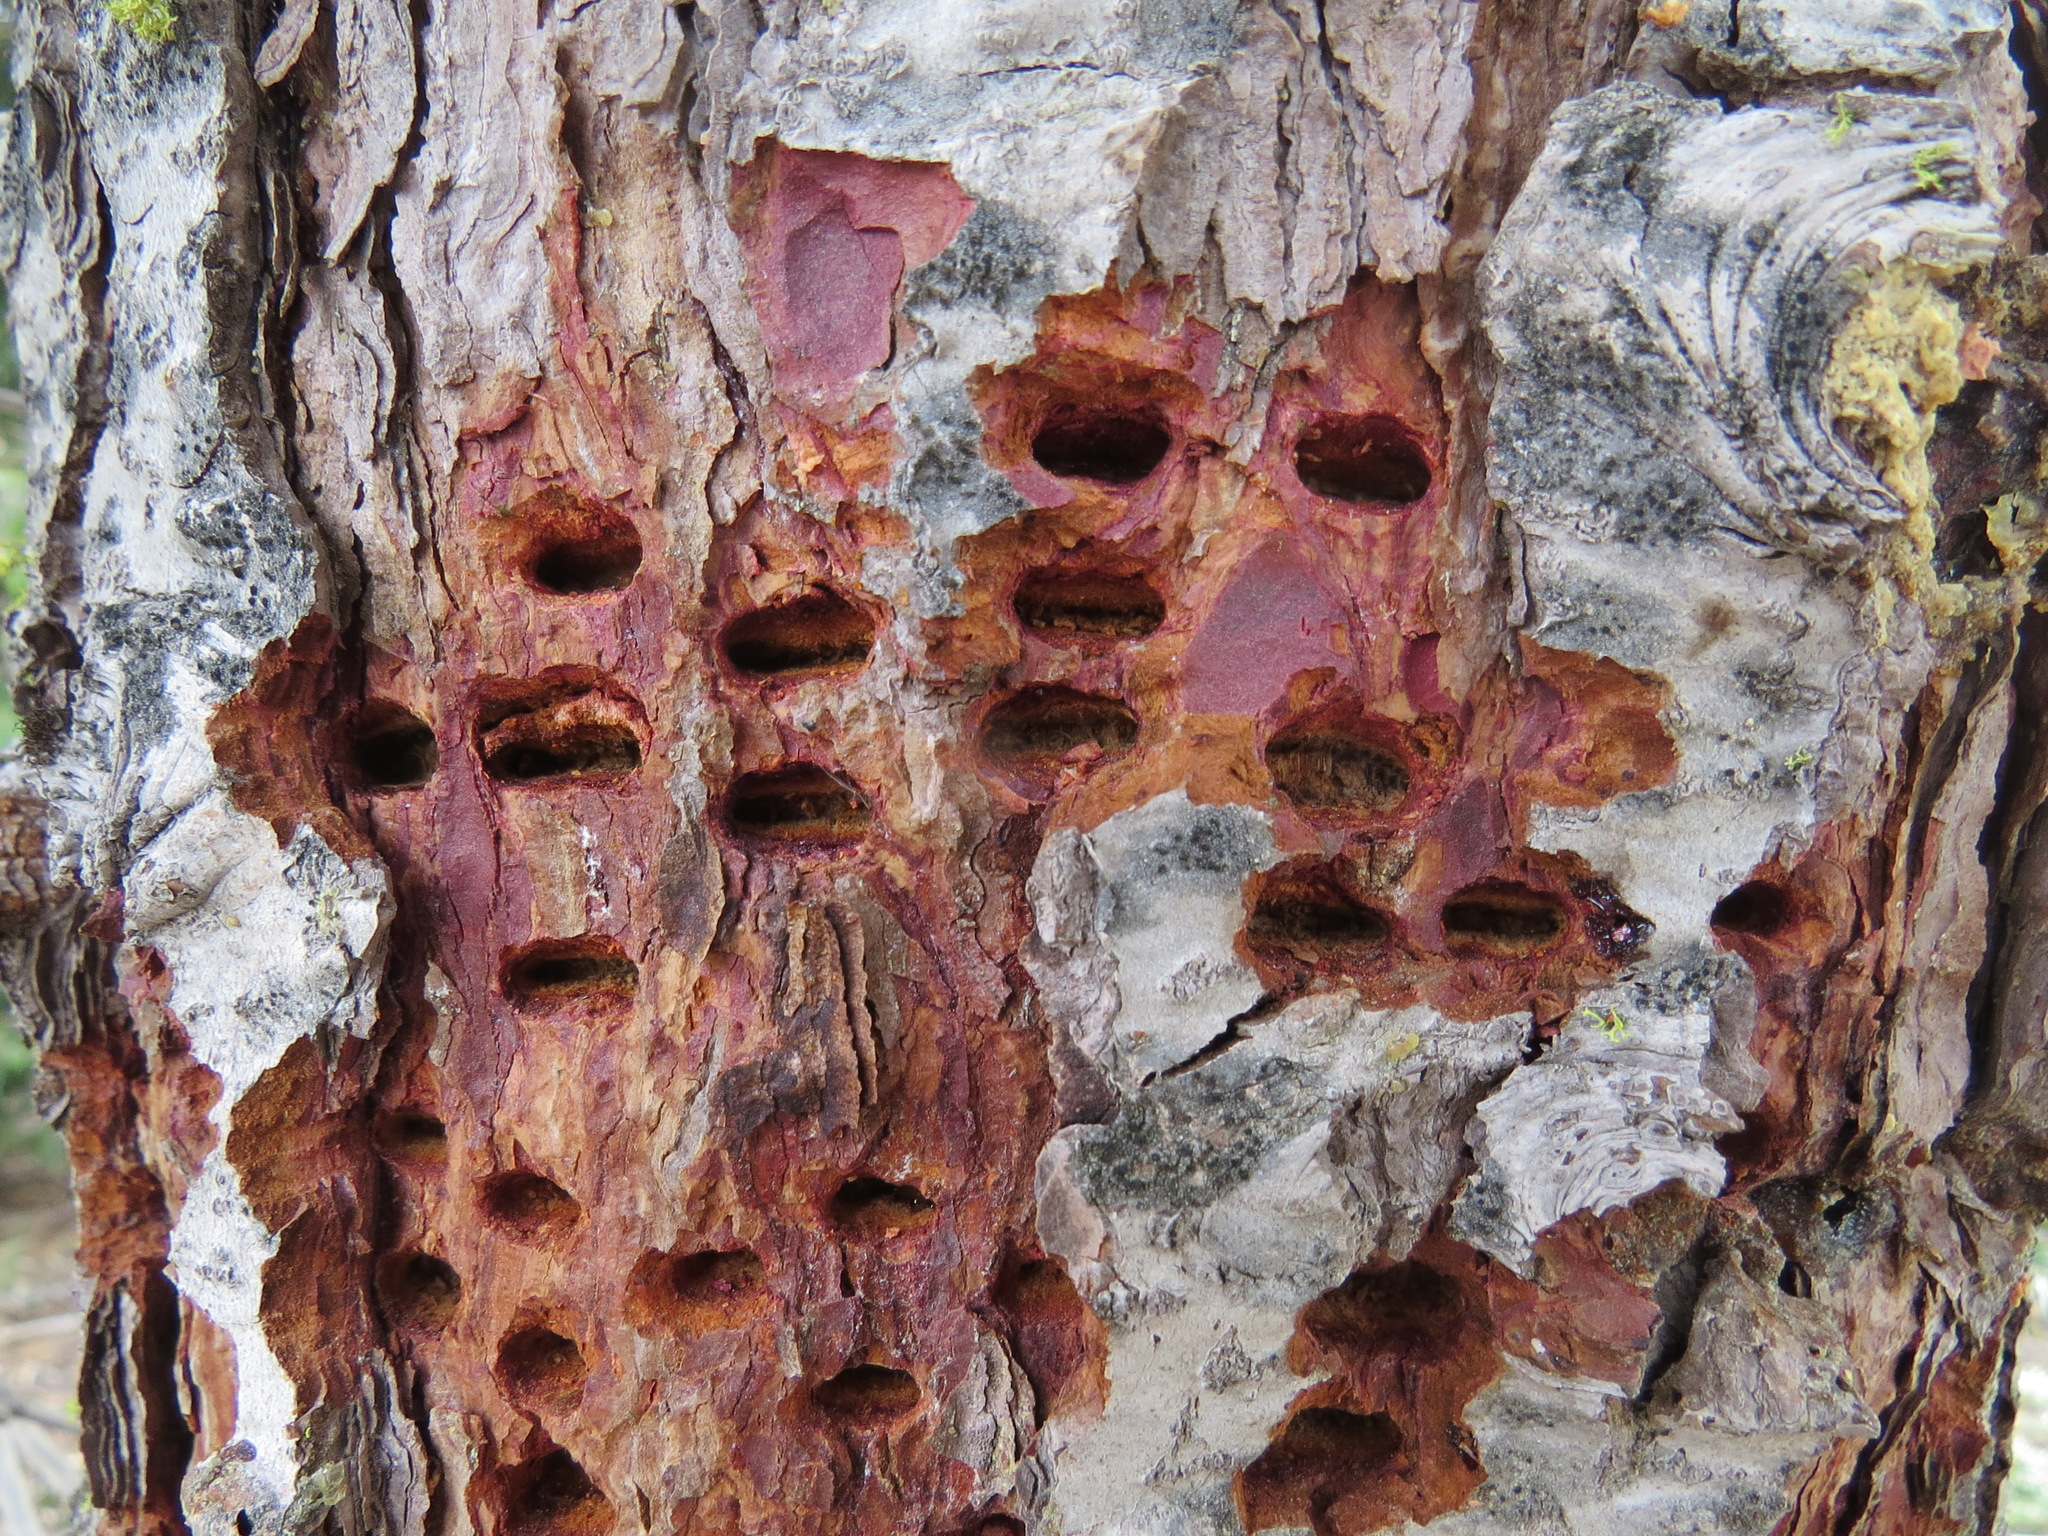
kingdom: Animalia
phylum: Chordata
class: Aves
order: Piciformes
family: Picidae
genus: Sphyrapicus
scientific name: Sphyrapicus ruber
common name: Red-breasted sapsucker
